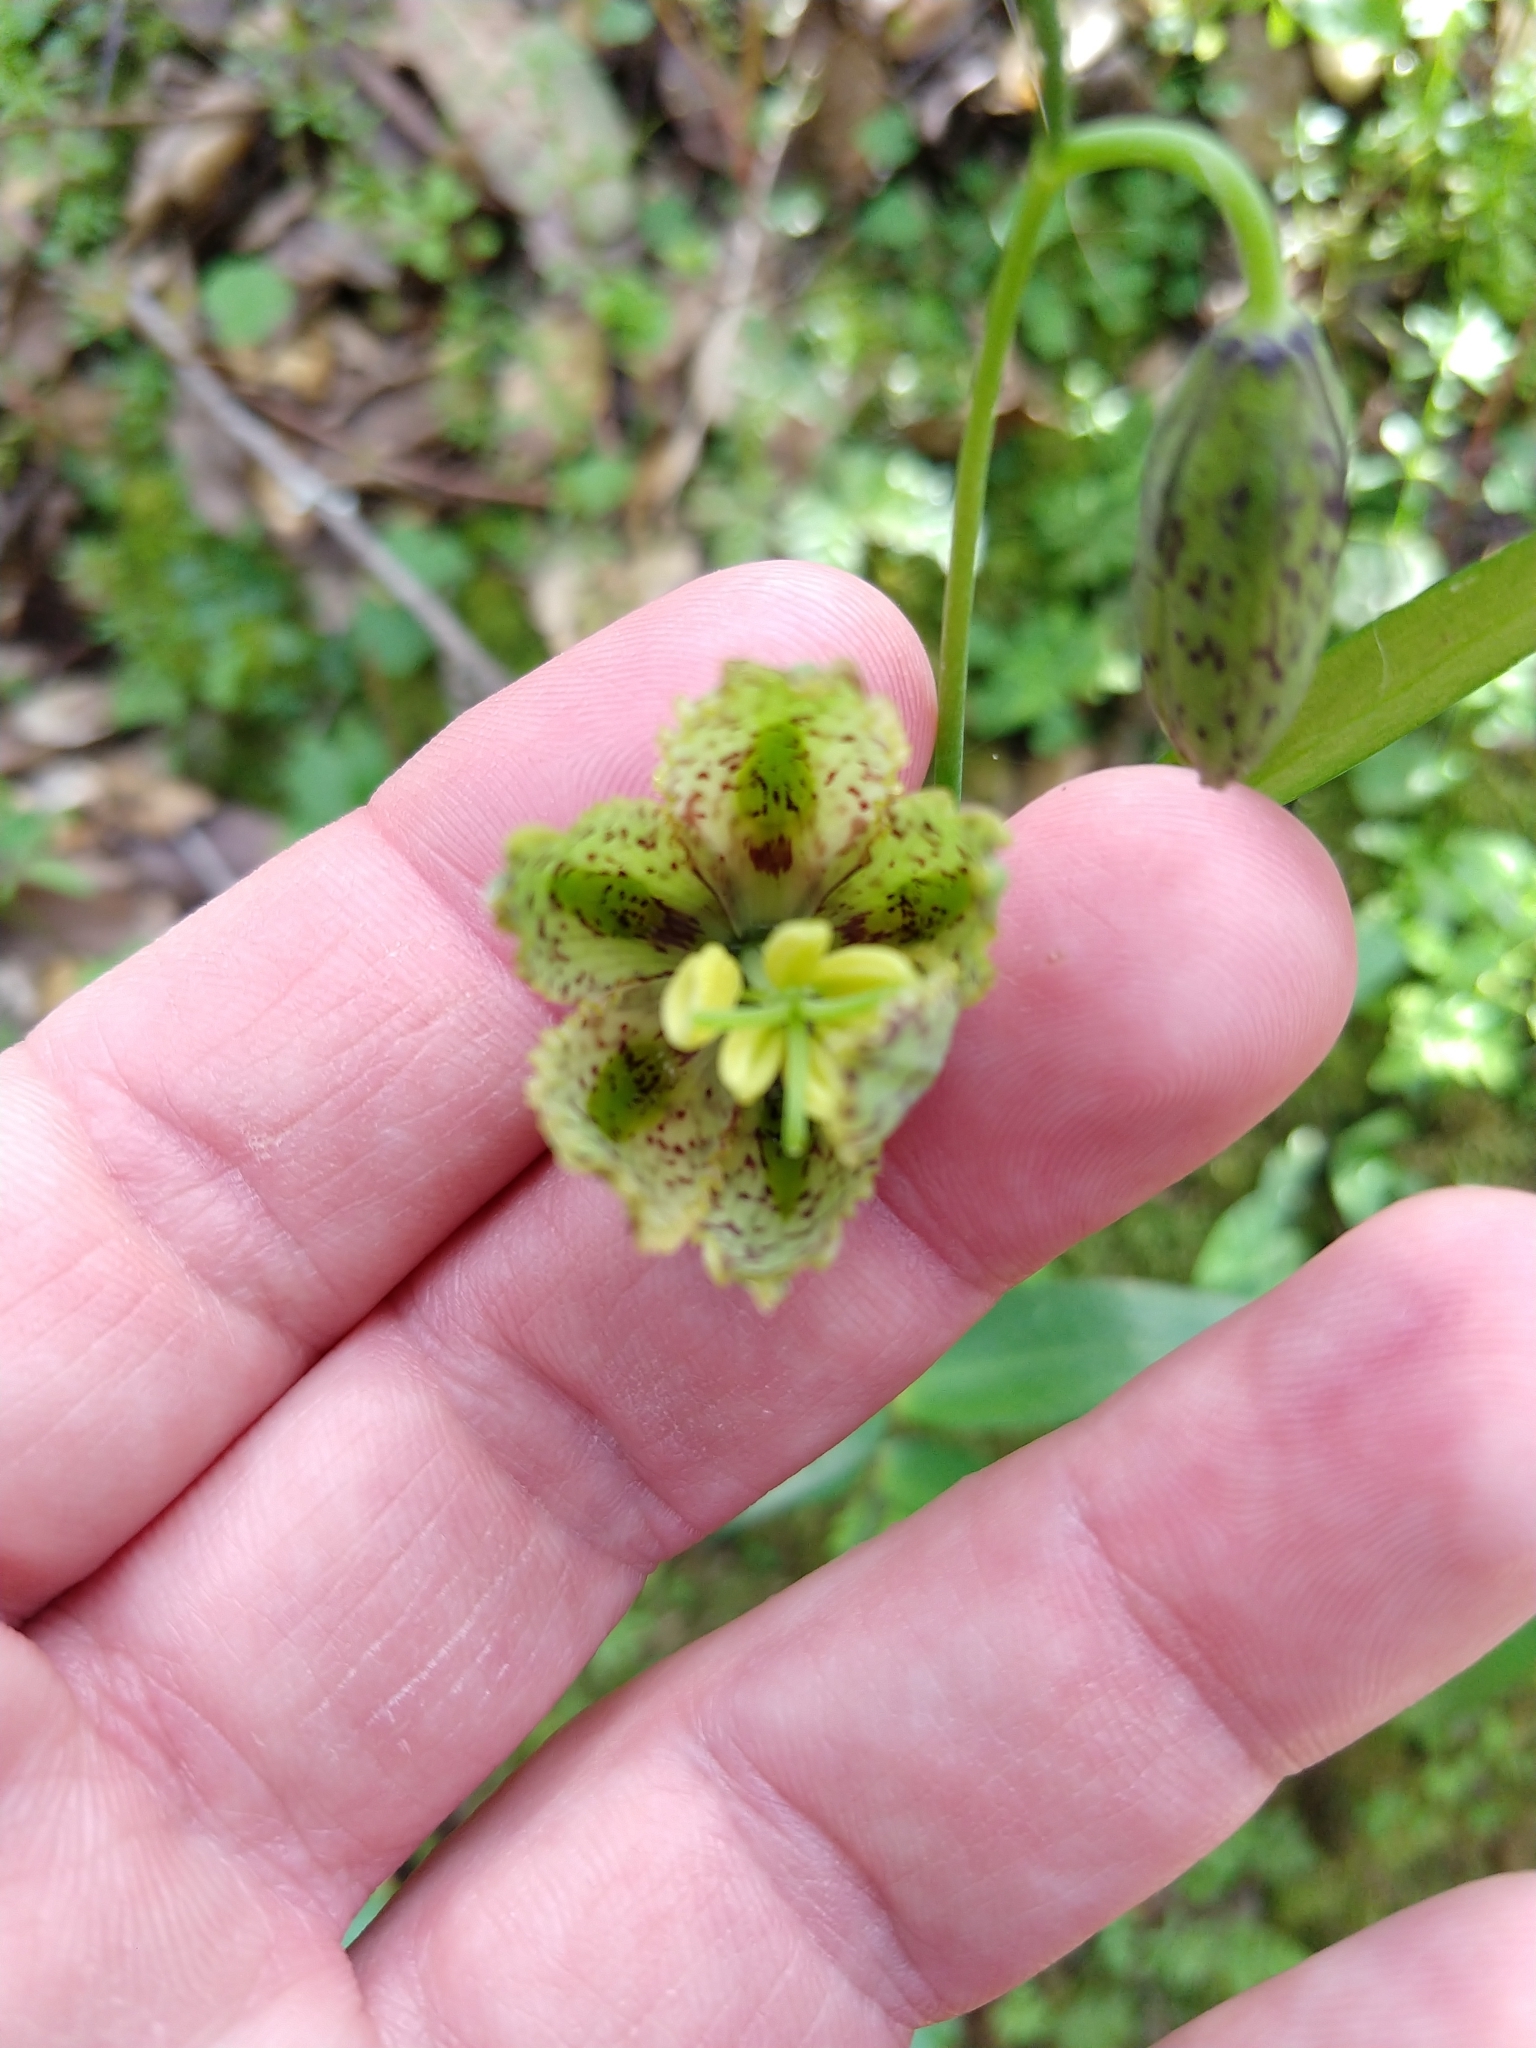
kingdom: Plantae
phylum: Tracheophyta
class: Liliopsida
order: Liliales
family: Liliaceae
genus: Fritillaria
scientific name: Fritillaria affinis
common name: Ojai fritillary
